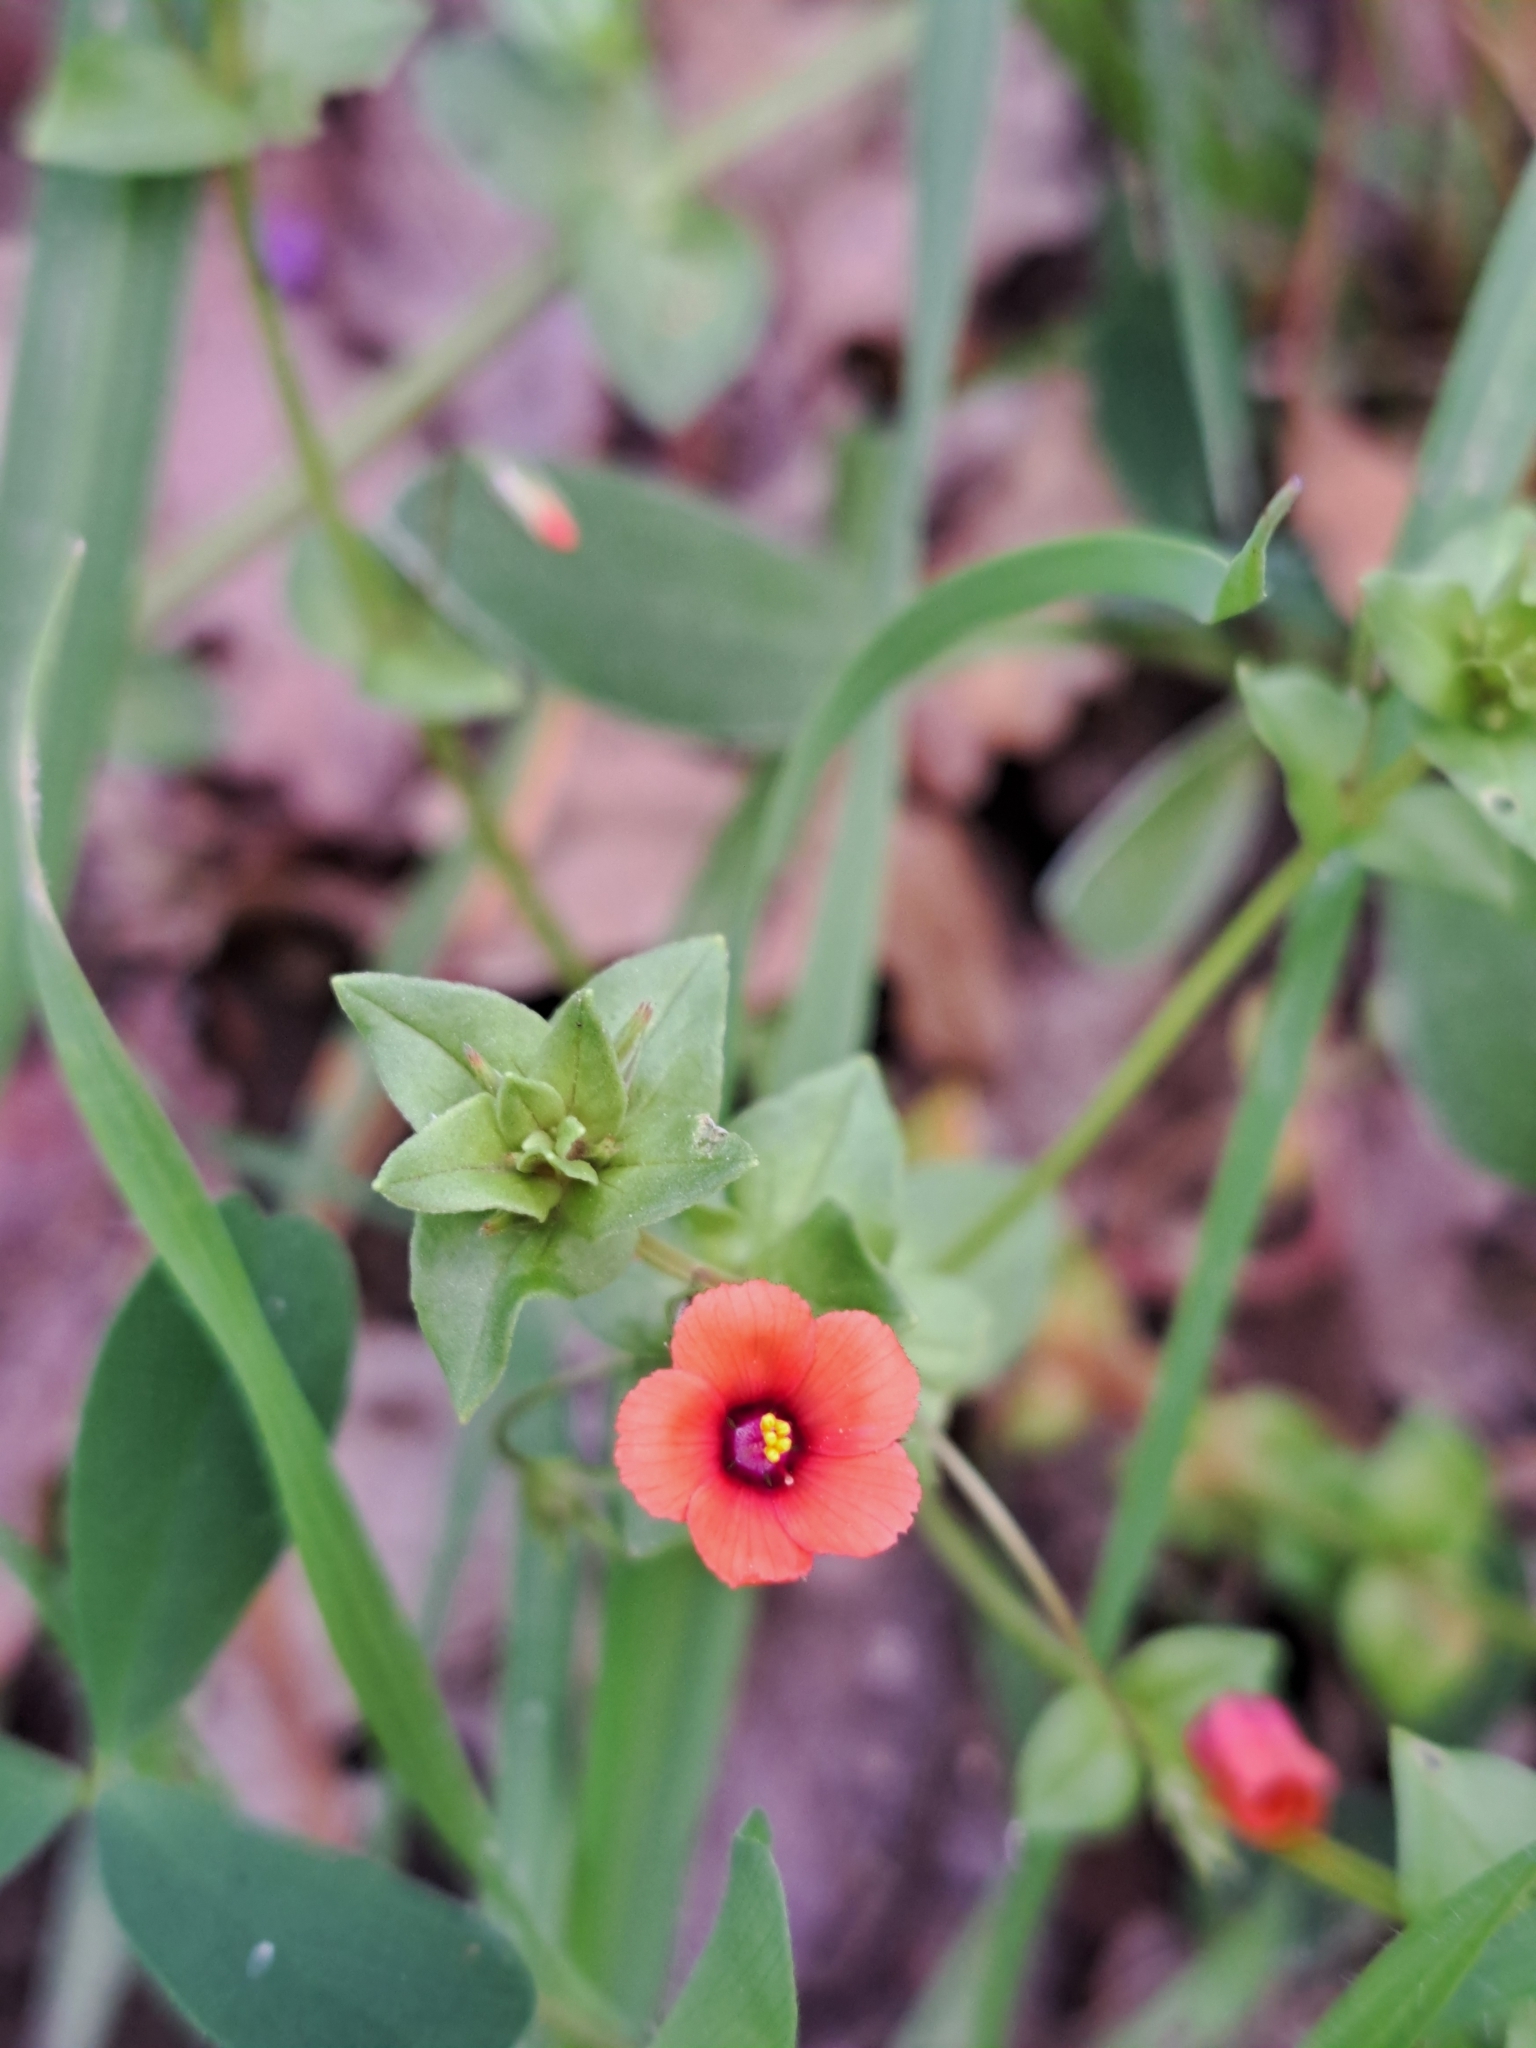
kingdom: Plantae
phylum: Tracheophyta
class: Magnoliopsida
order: Ericales
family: Primulaceae
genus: Lysimachia
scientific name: Lysimachia arvensis
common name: Scarlet pimpernel
